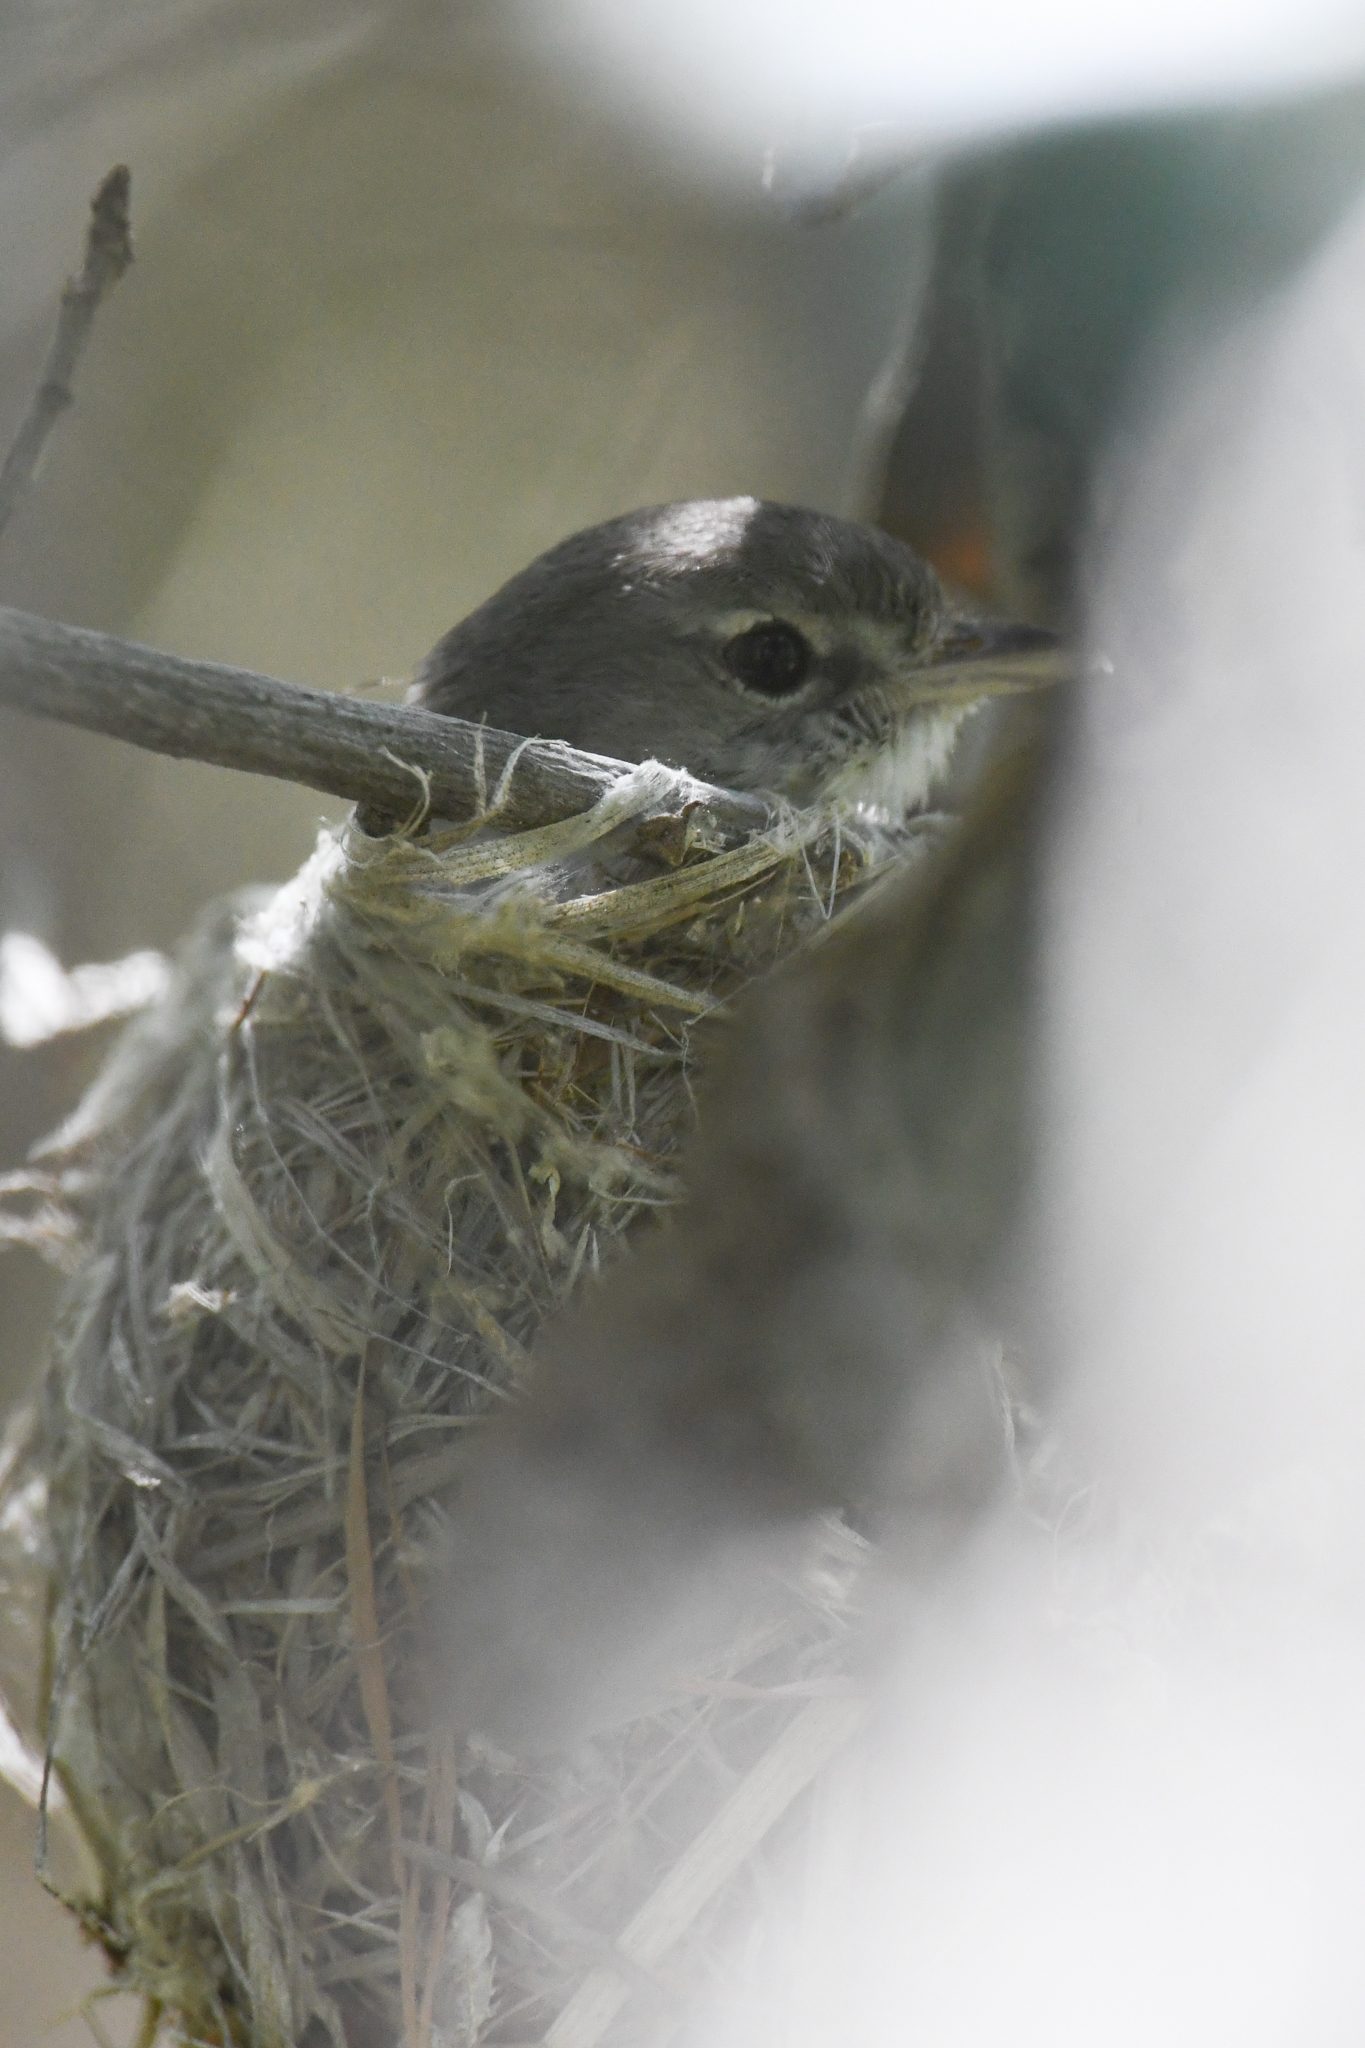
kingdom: Animalia
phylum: Chordata
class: Aves
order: Passeriformes
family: Vireonidae
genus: Vireo
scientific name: Vireo bellii
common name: Bell's vireo
